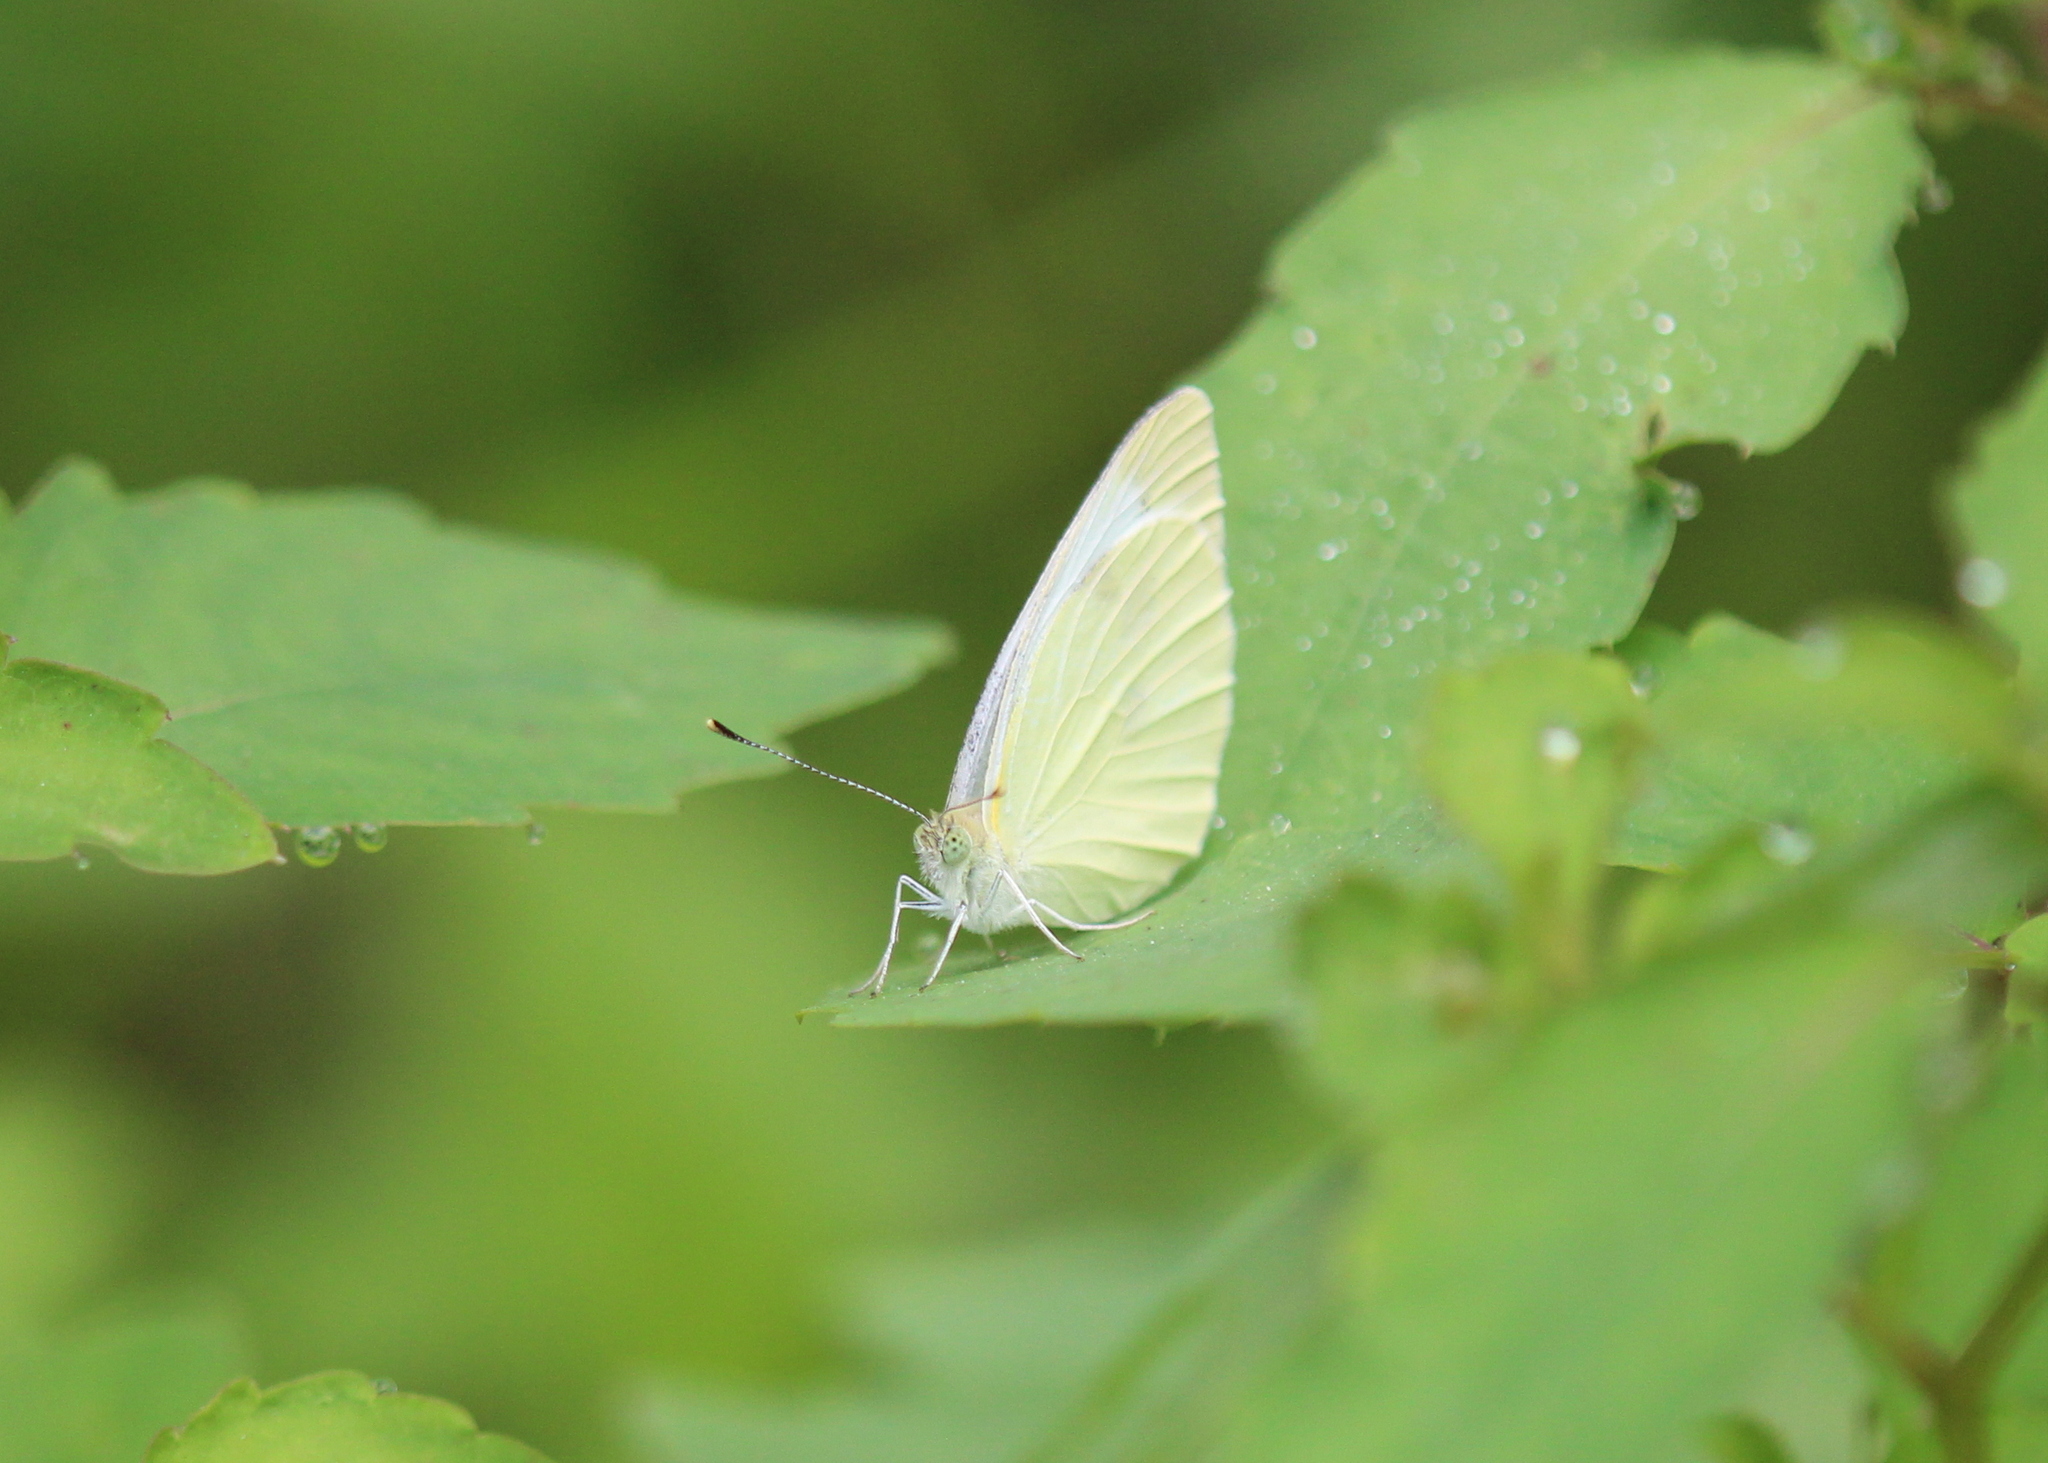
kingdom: Animalia
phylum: Arthropoda
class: Insecta
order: Lepidoptera
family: Pieridae
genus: Pieris
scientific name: Pieris rapae
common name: Small white
